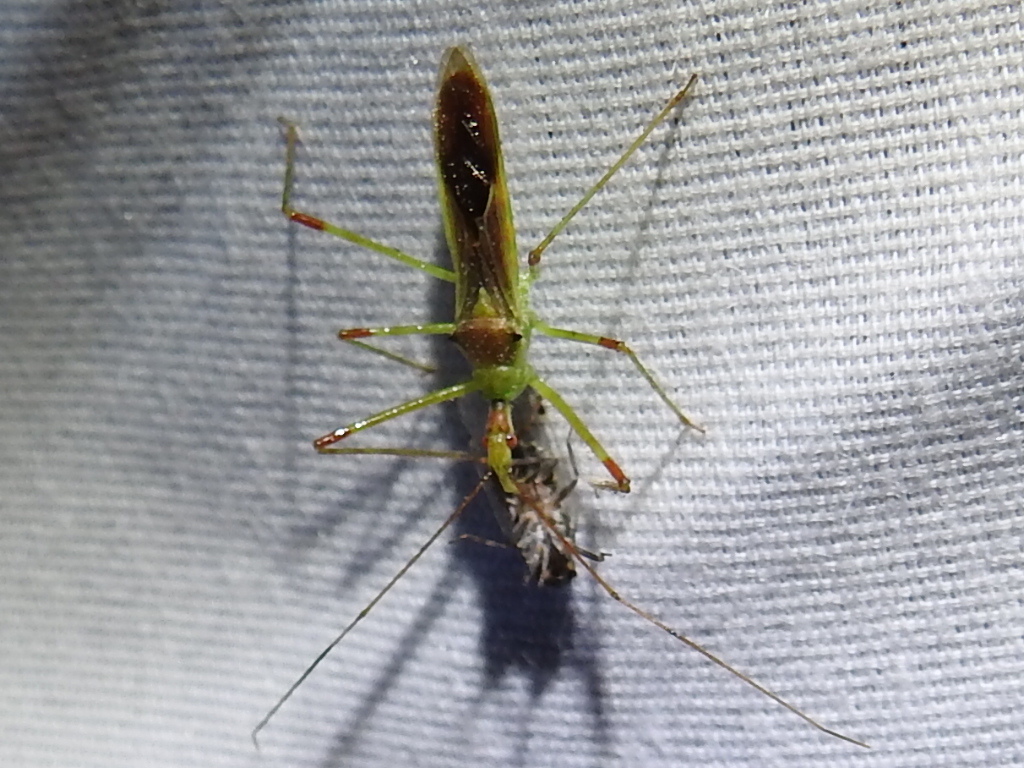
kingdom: Animalia
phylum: Arthropoda
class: Insecta
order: Hemiptera
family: Reduviidae
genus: Zelus
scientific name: Zelus luridus
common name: Pale green assassin bug
